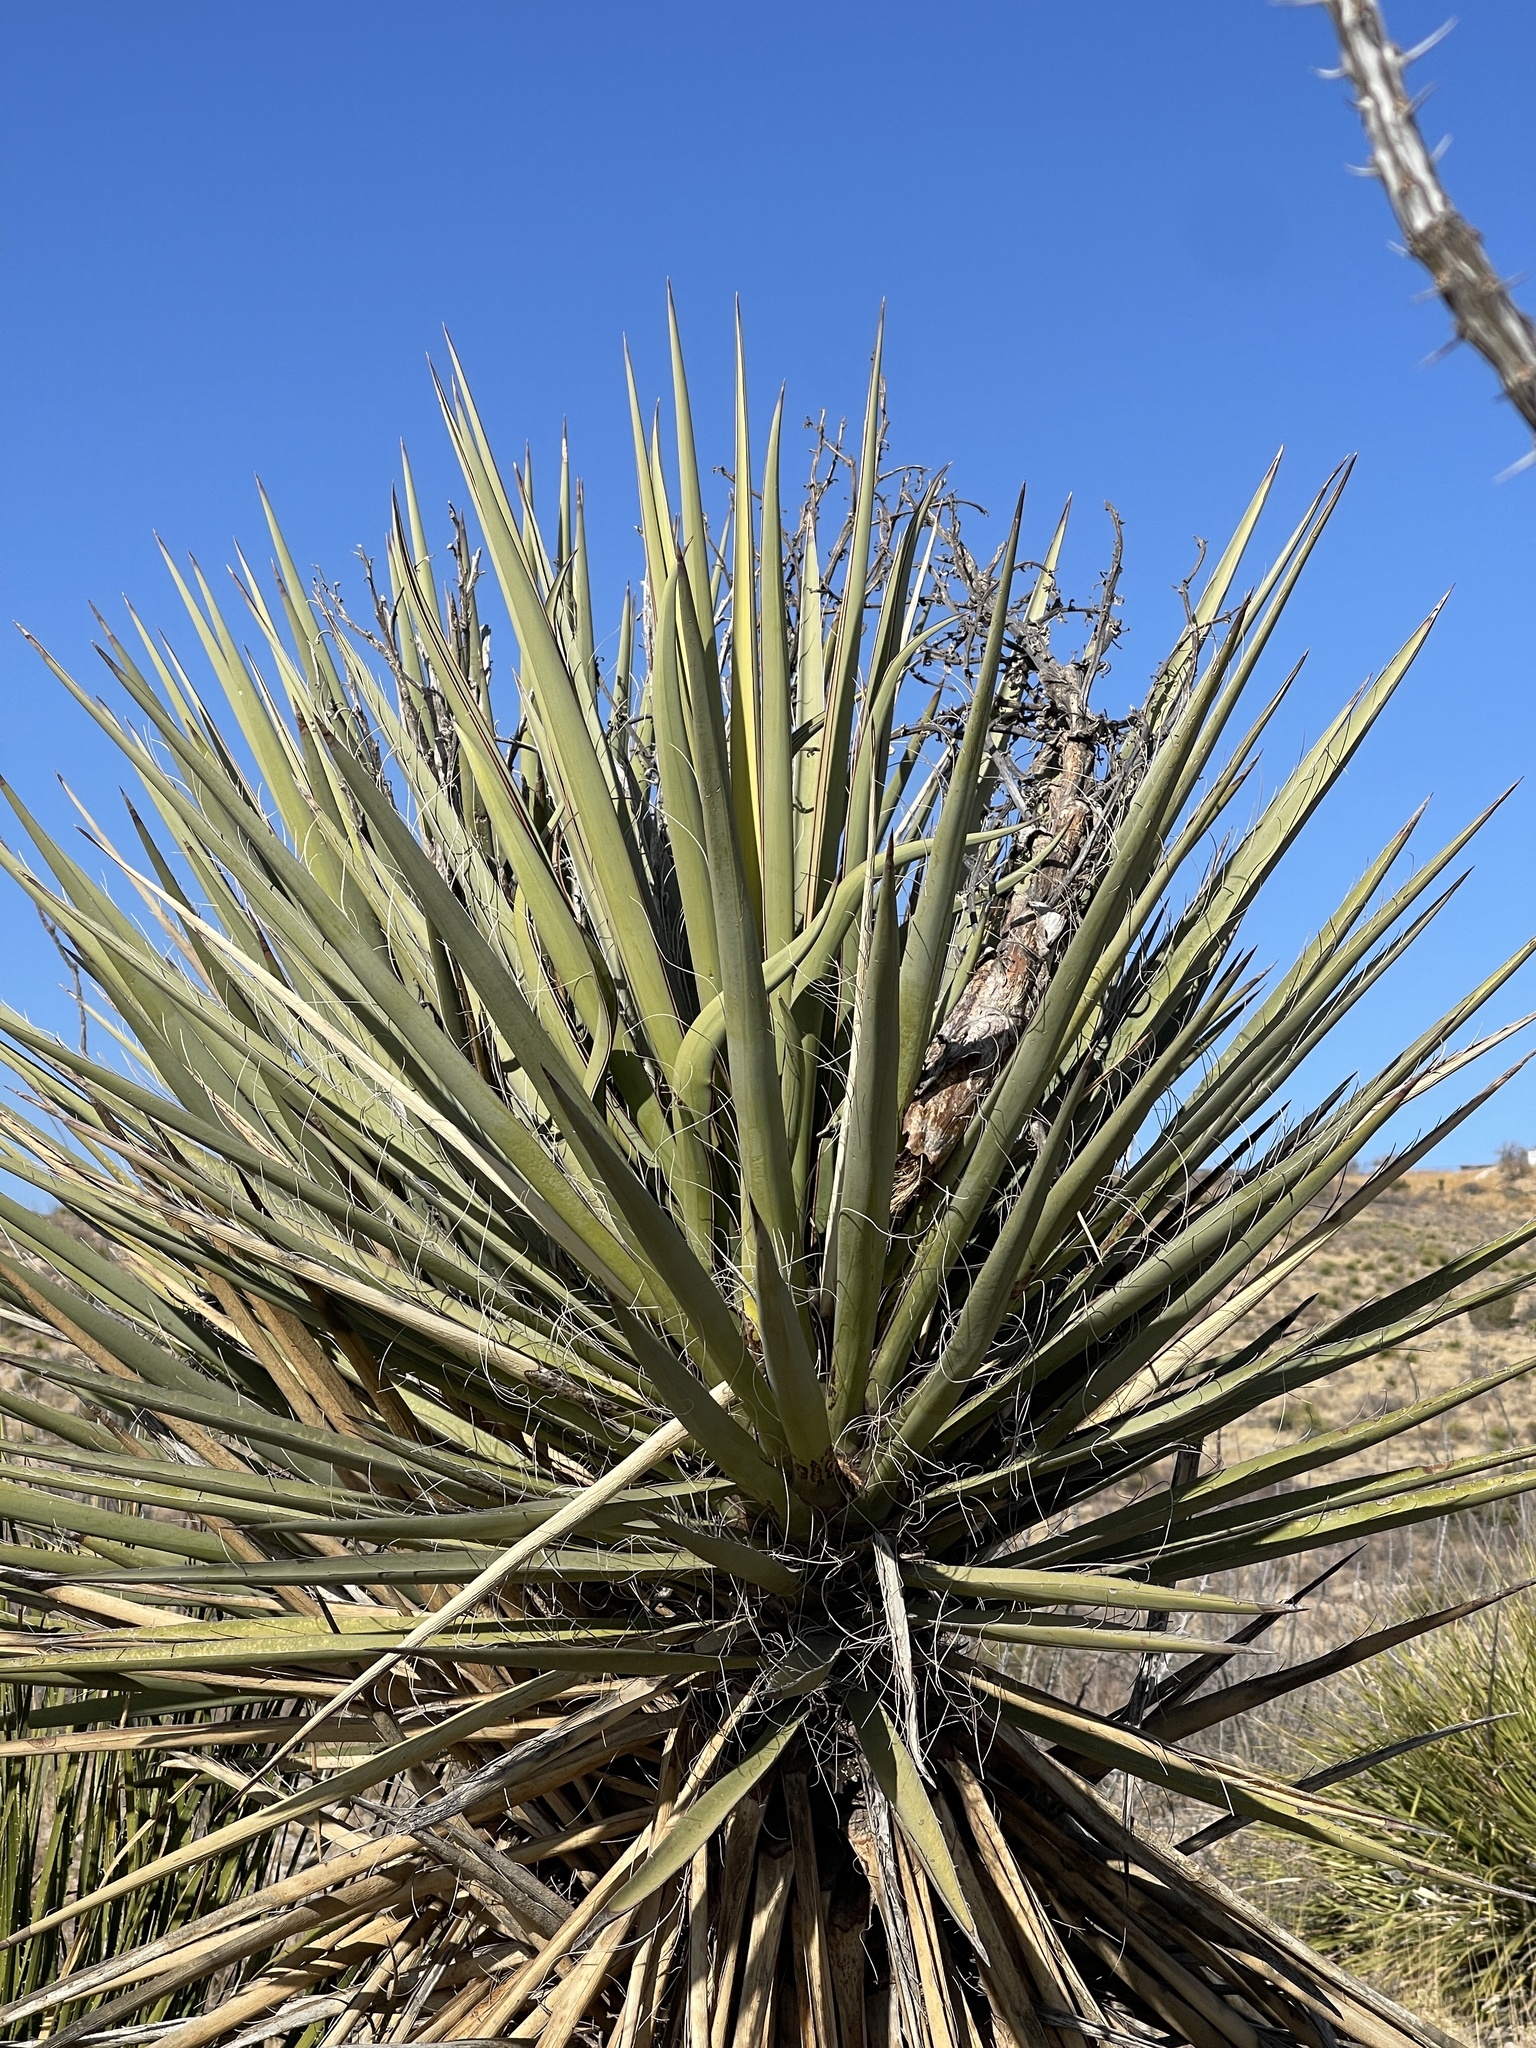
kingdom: Plantae
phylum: Tracheophyta
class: Liliopsida
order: Asparagales
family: Asparagaceae
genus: Yucca
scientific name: Yucca treculiana
